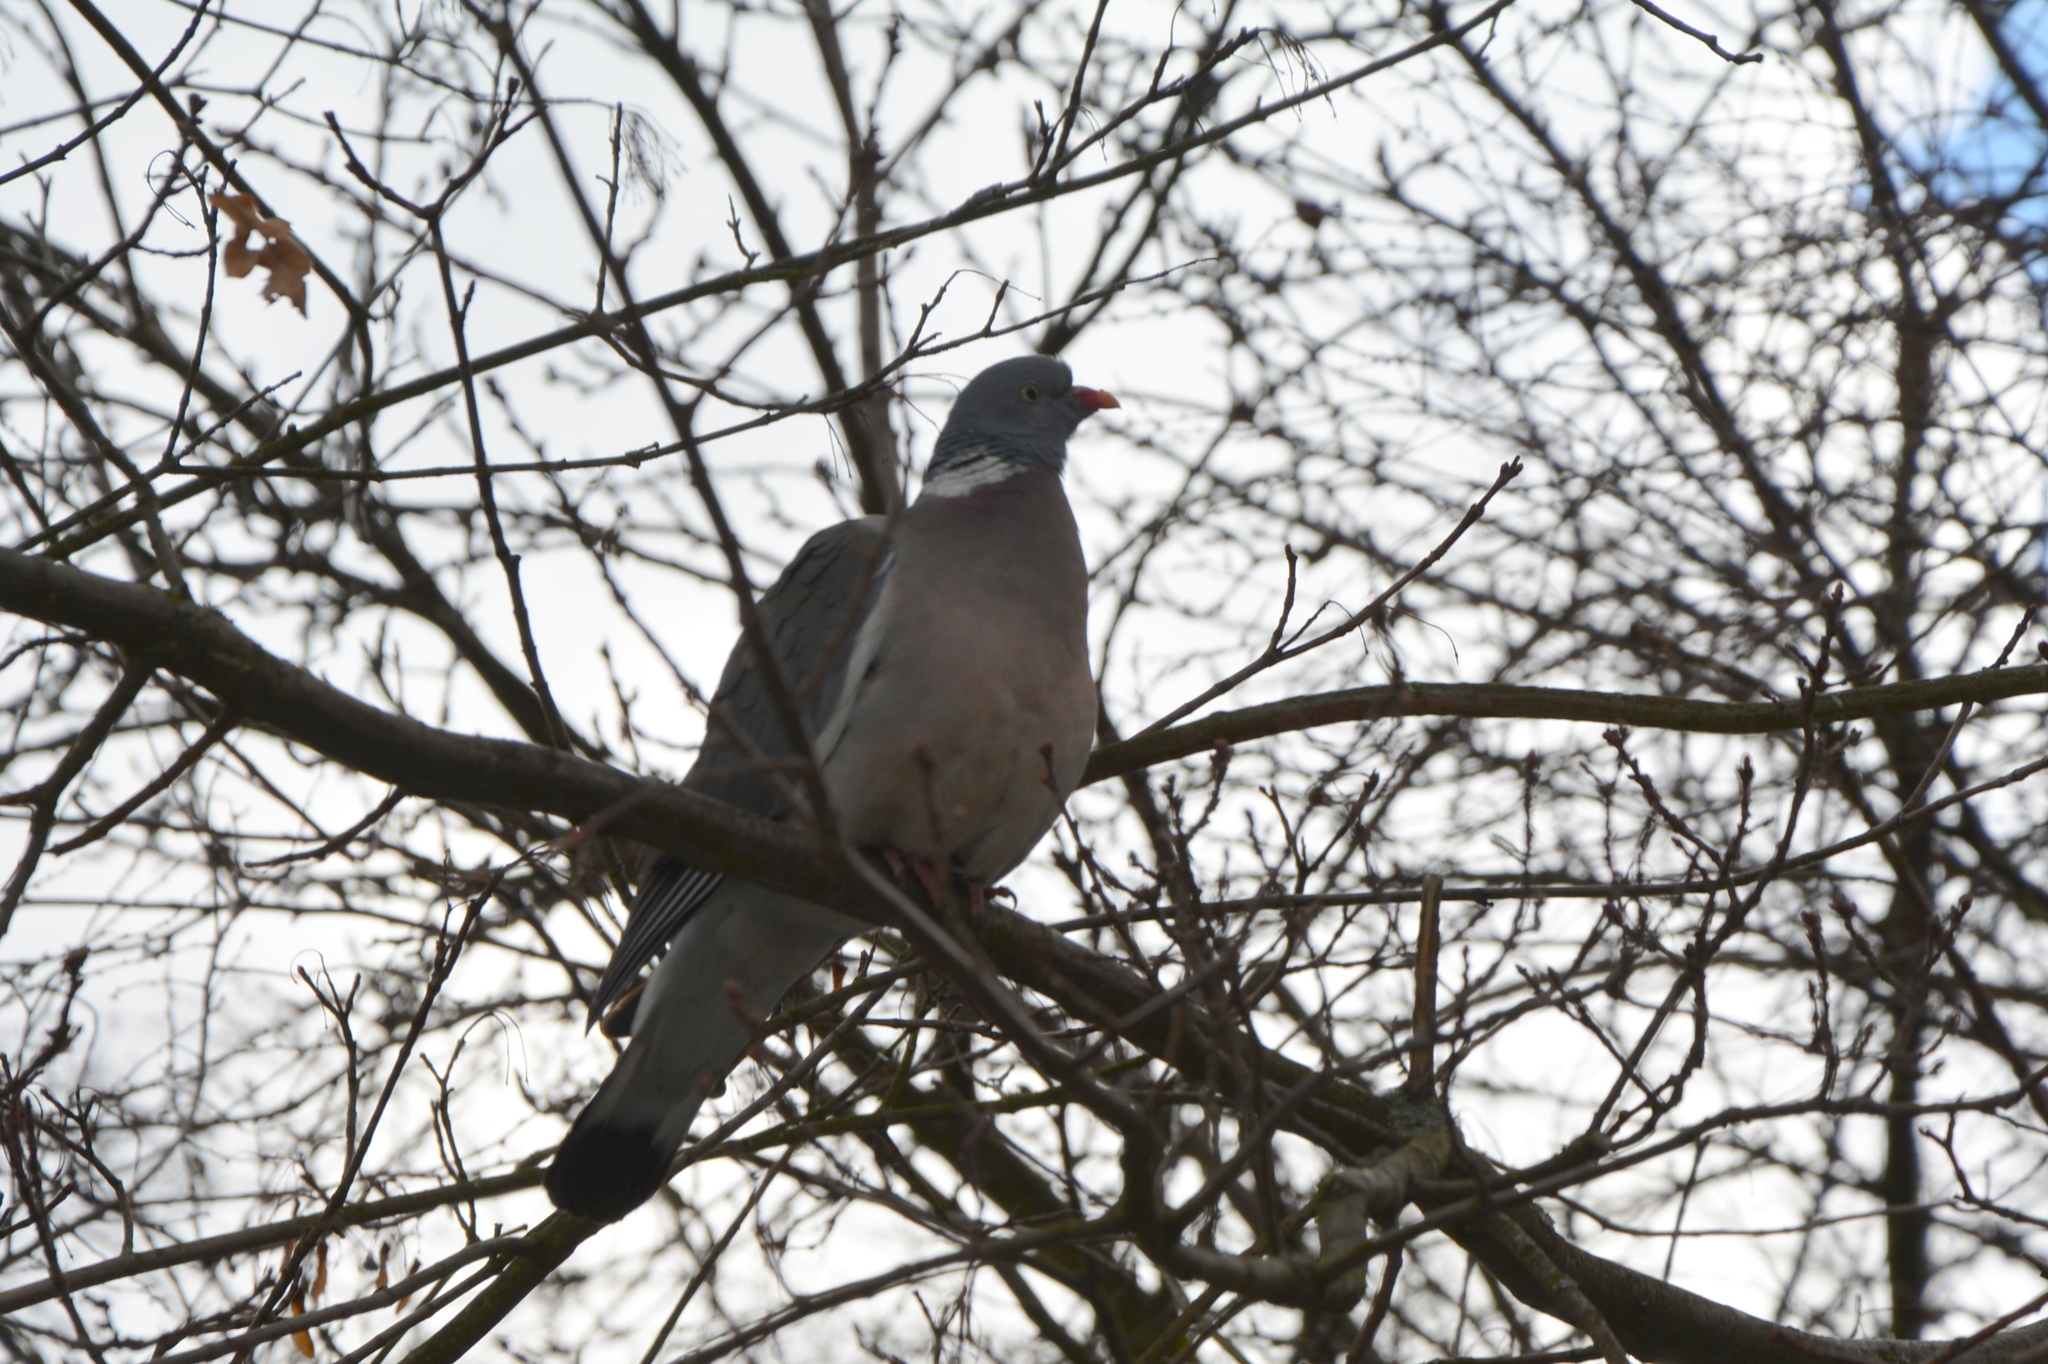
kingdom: Animalia
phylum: Chordata
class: Aves
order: Columbiformes
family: Columbidae
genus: Columba
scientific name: Columba palumbus
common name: Common wood pigeon
